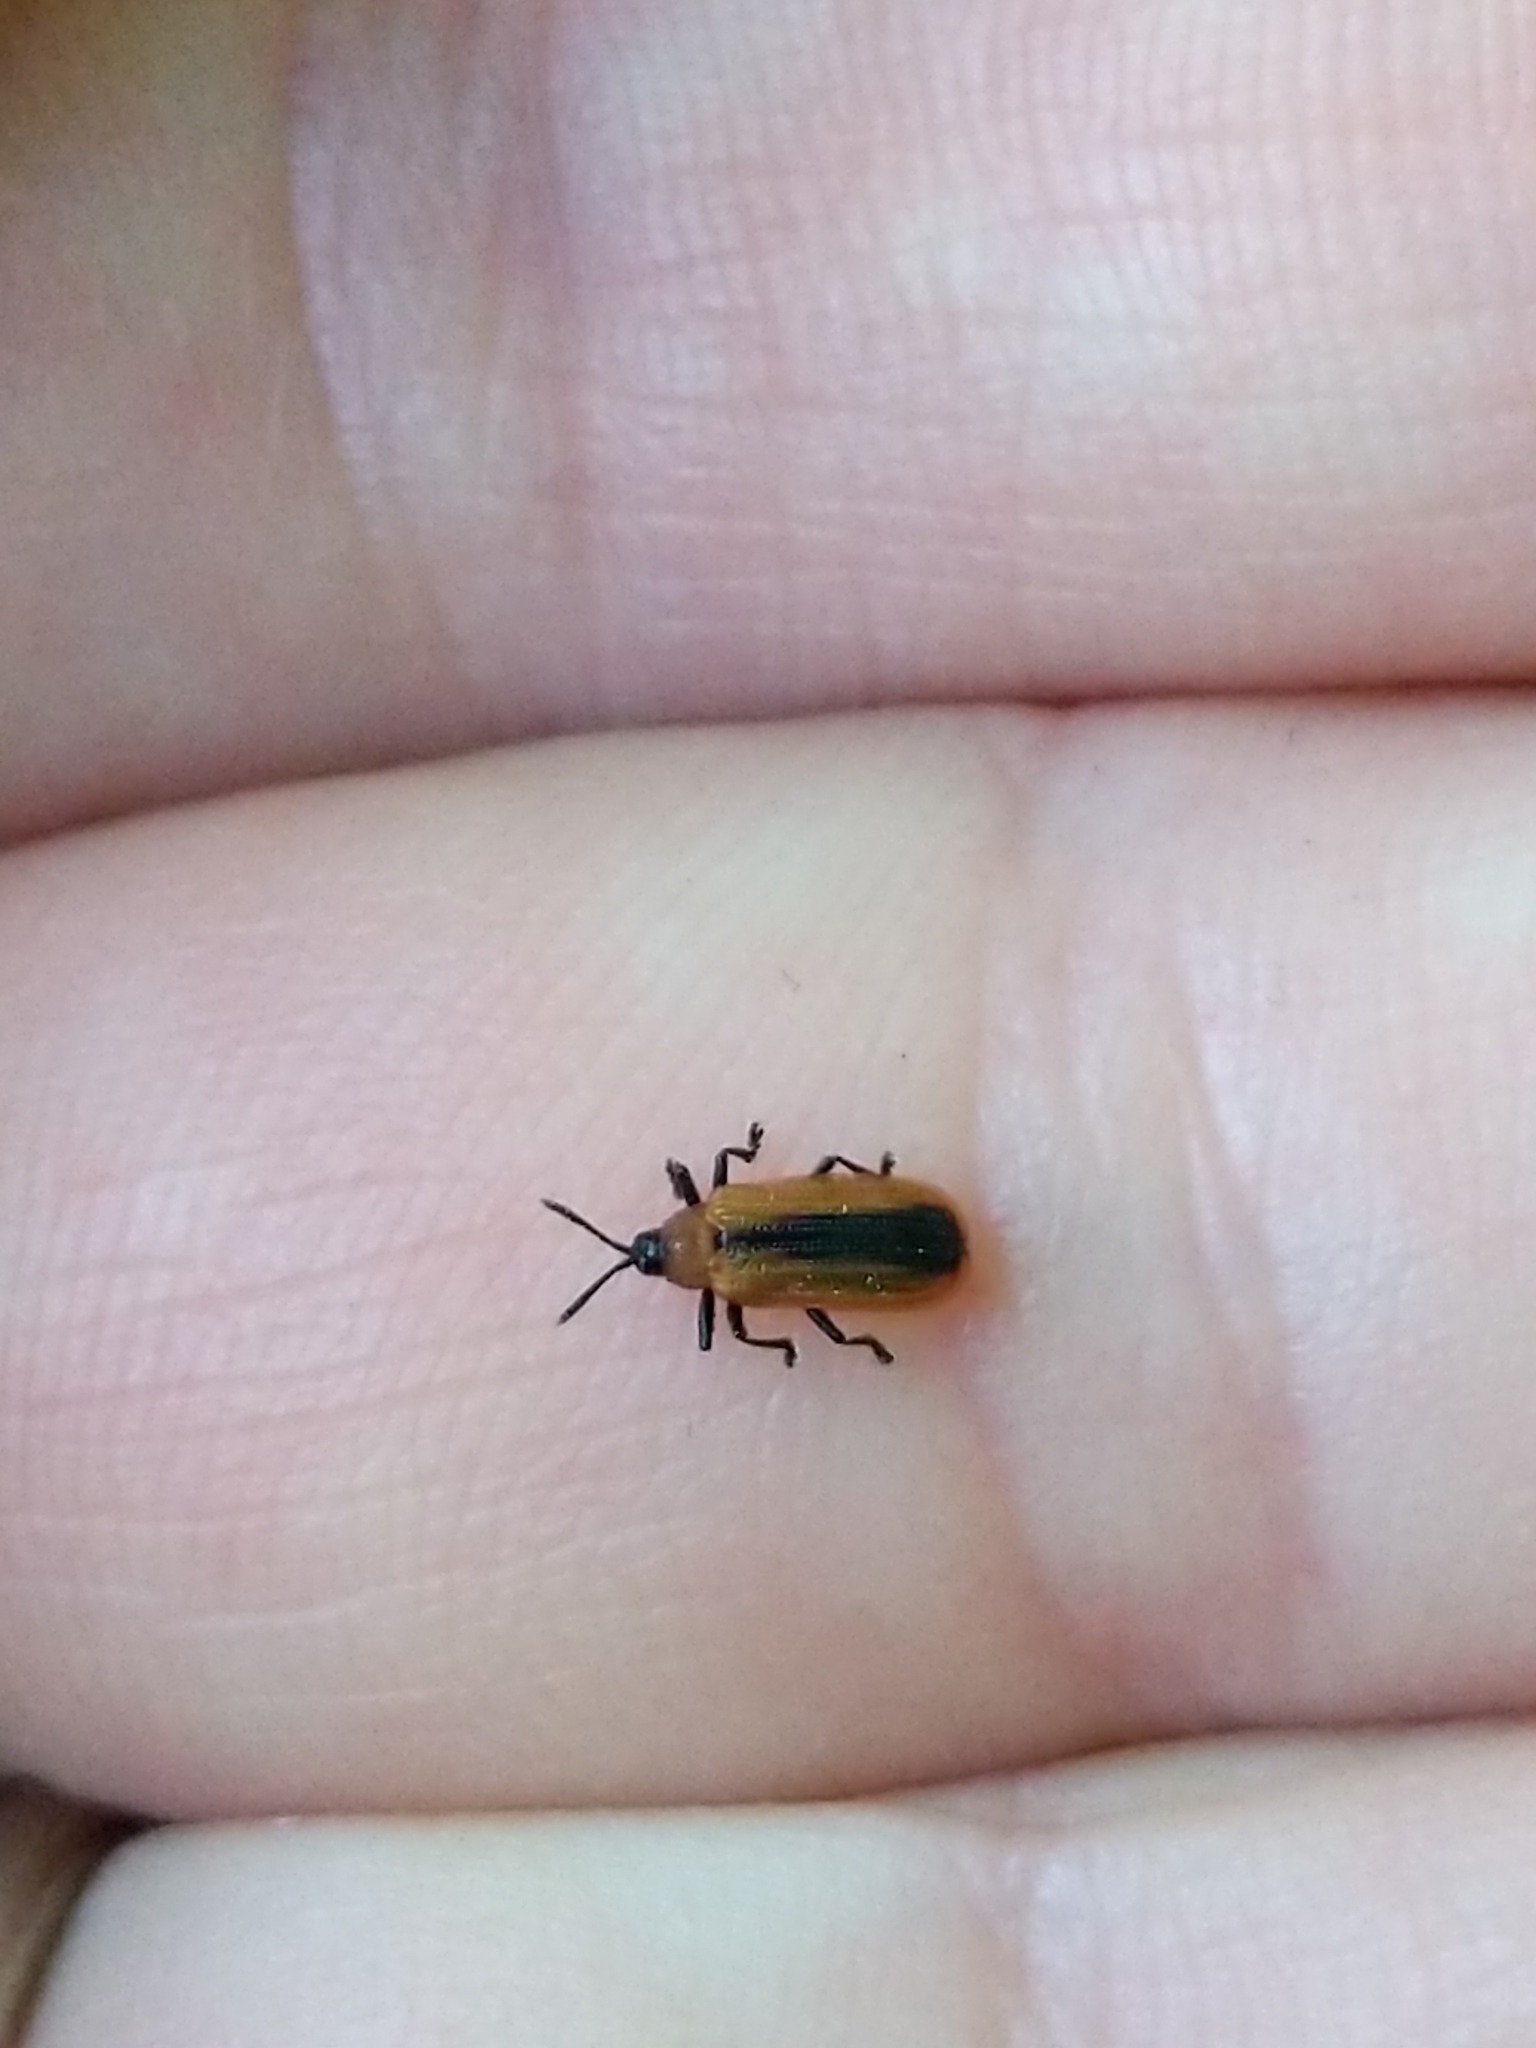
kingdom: Animalia
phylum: Arthropoda
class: Insecta
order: Coleoptera
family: Chrysomelidae
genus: Odontota
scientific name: Odontota dorsalis
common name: Locust leaf-miner beetle
